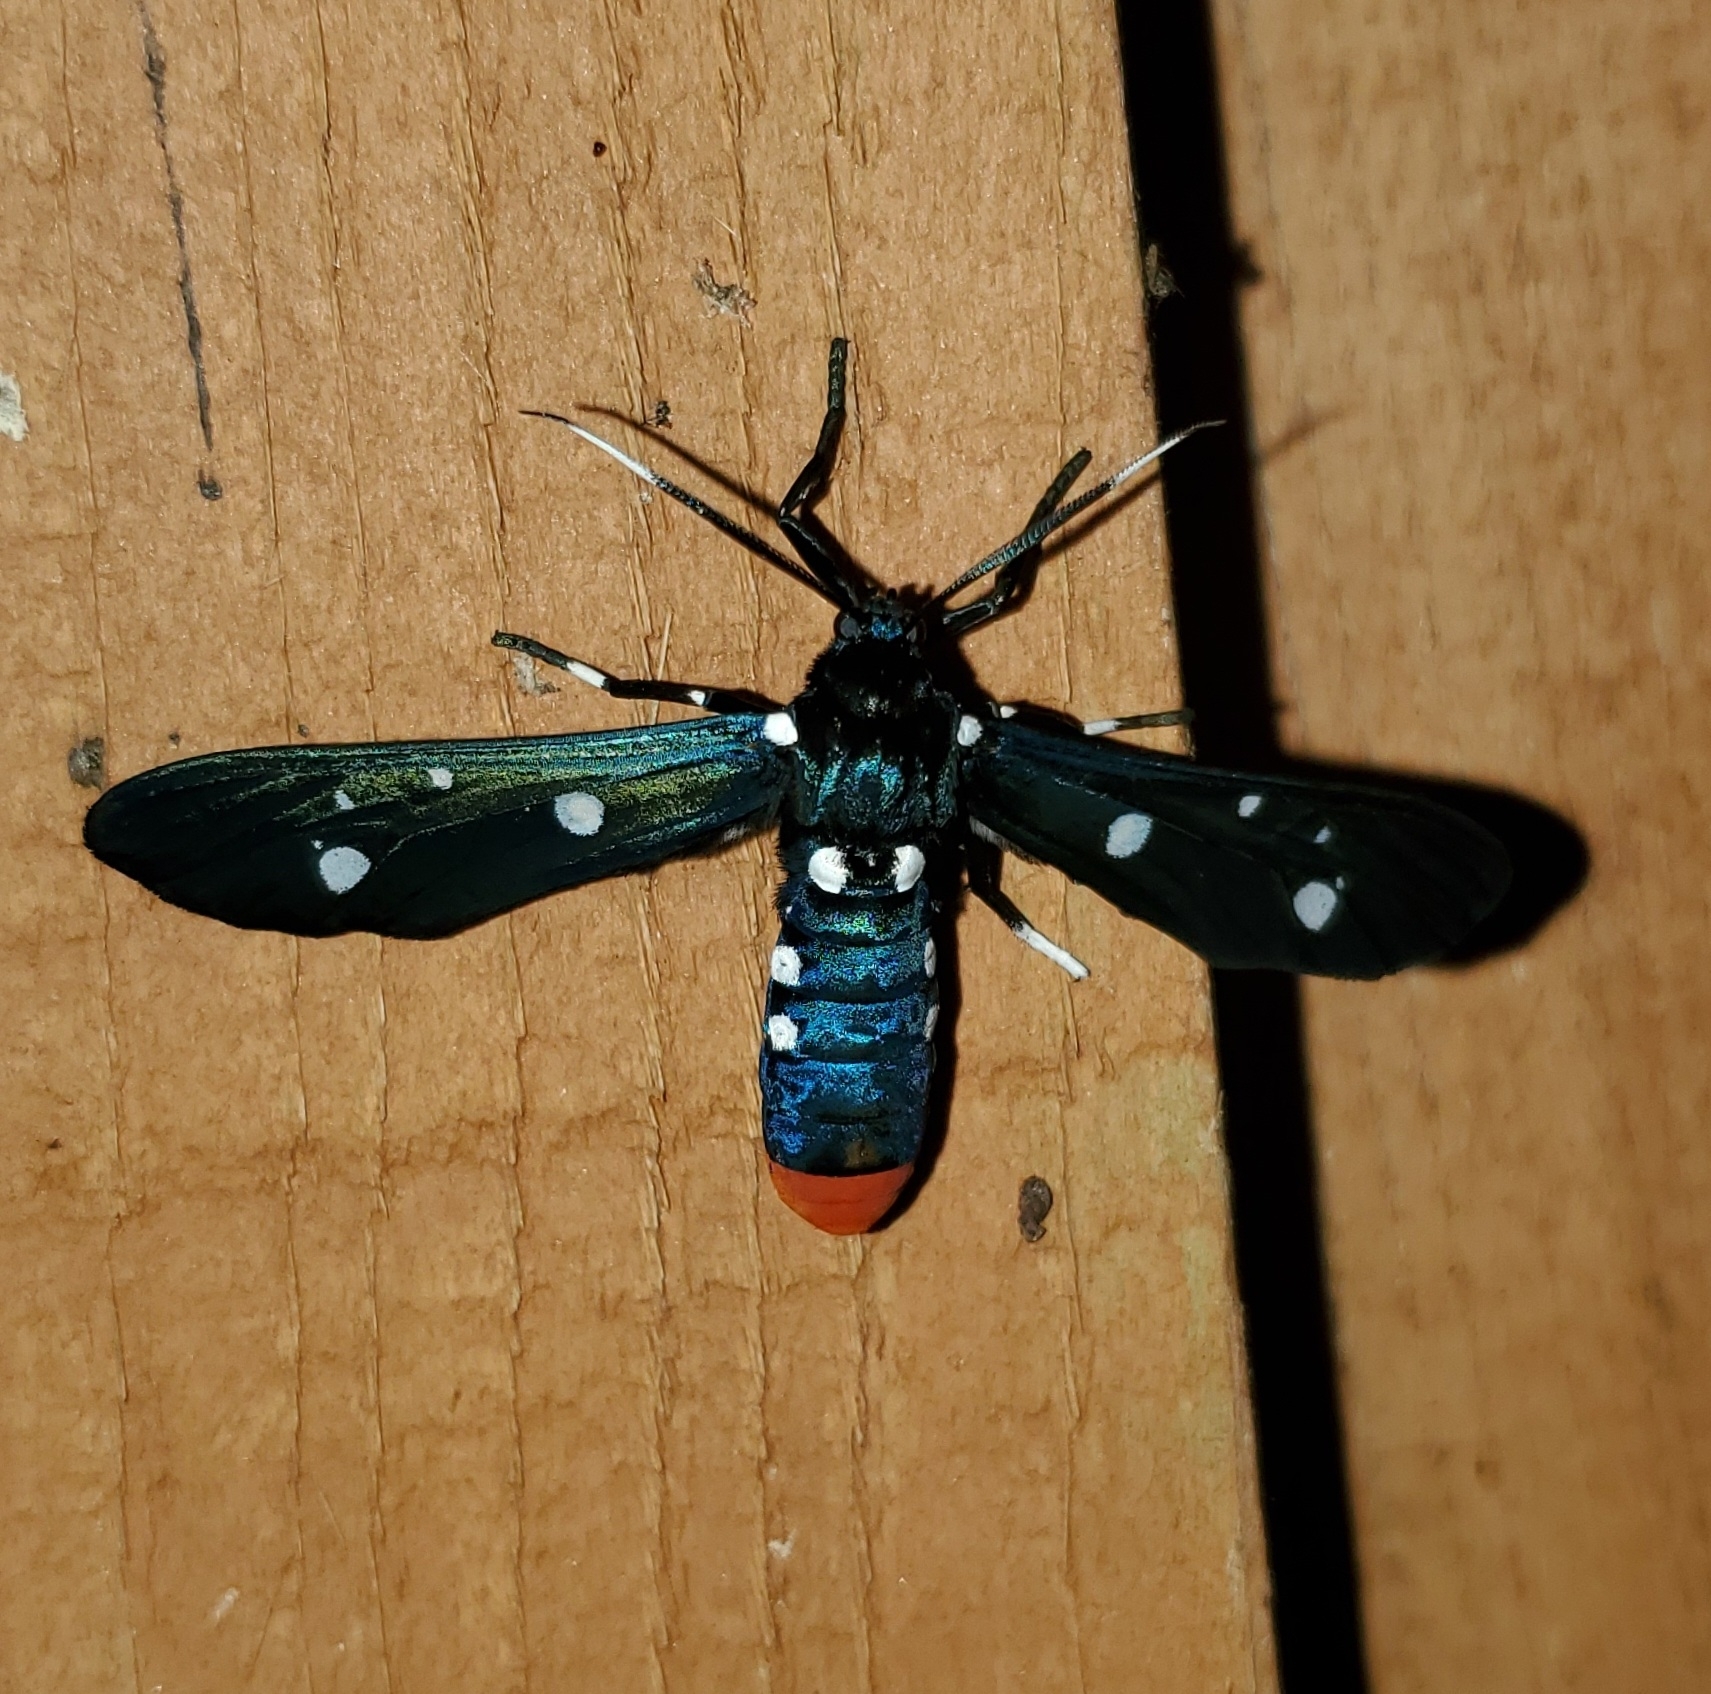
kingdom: Animalia
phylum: Arthropoda
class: Insecta
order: Lepidoptera
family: Erebidae
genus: Syntomeida
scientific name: Syntomeida epilais
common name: Polka-dot wasp moth
